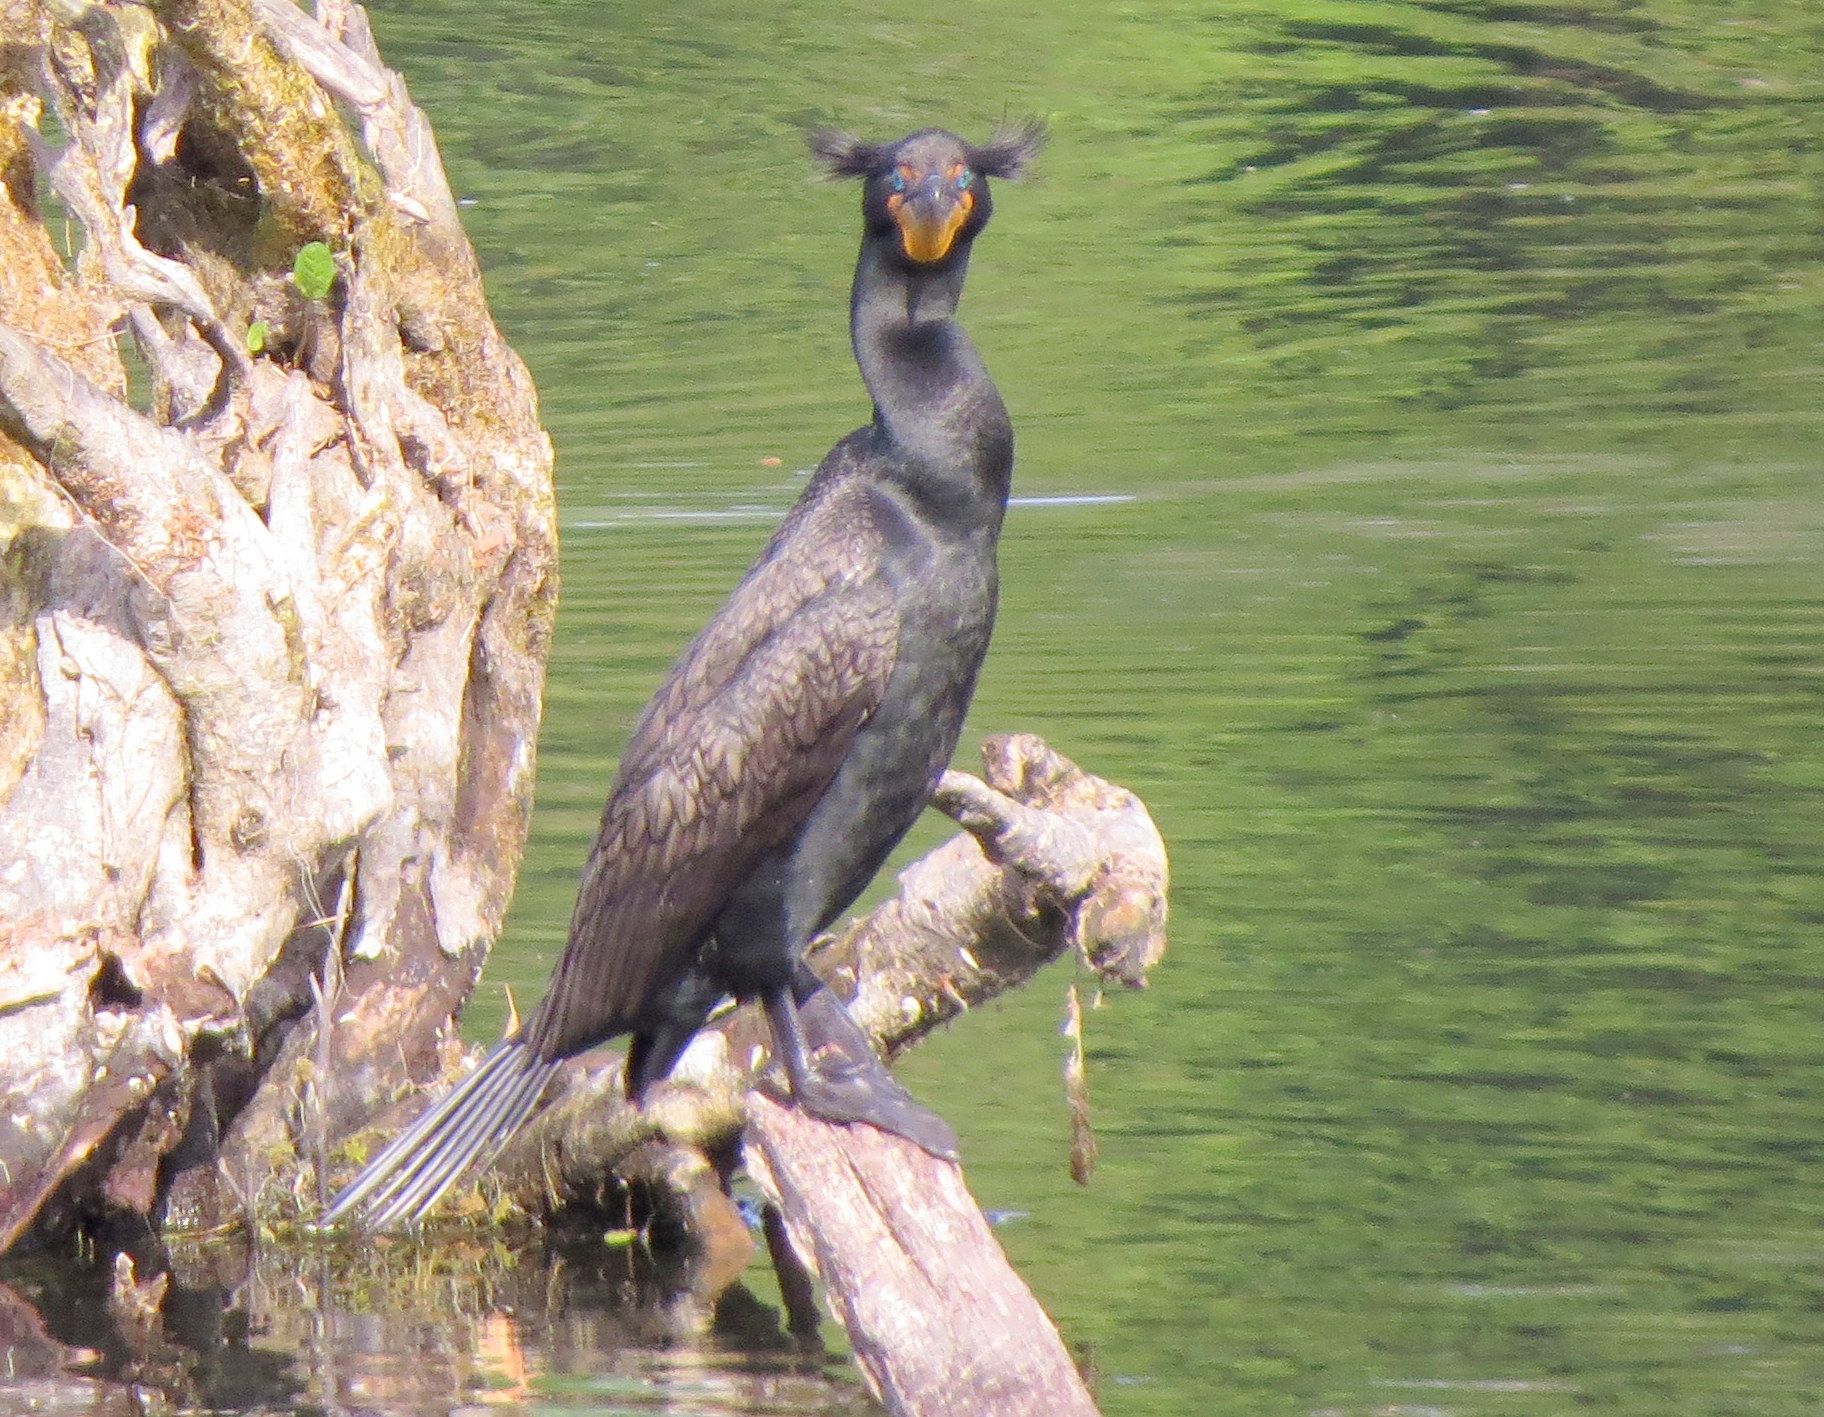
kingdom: Animalia
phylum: Chordata
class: Aves
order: Suliformes
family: Phalacrocoracidae
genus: Phalacrocorax
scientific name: Phalacrocorax auritus
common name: Double-crested cormorant
